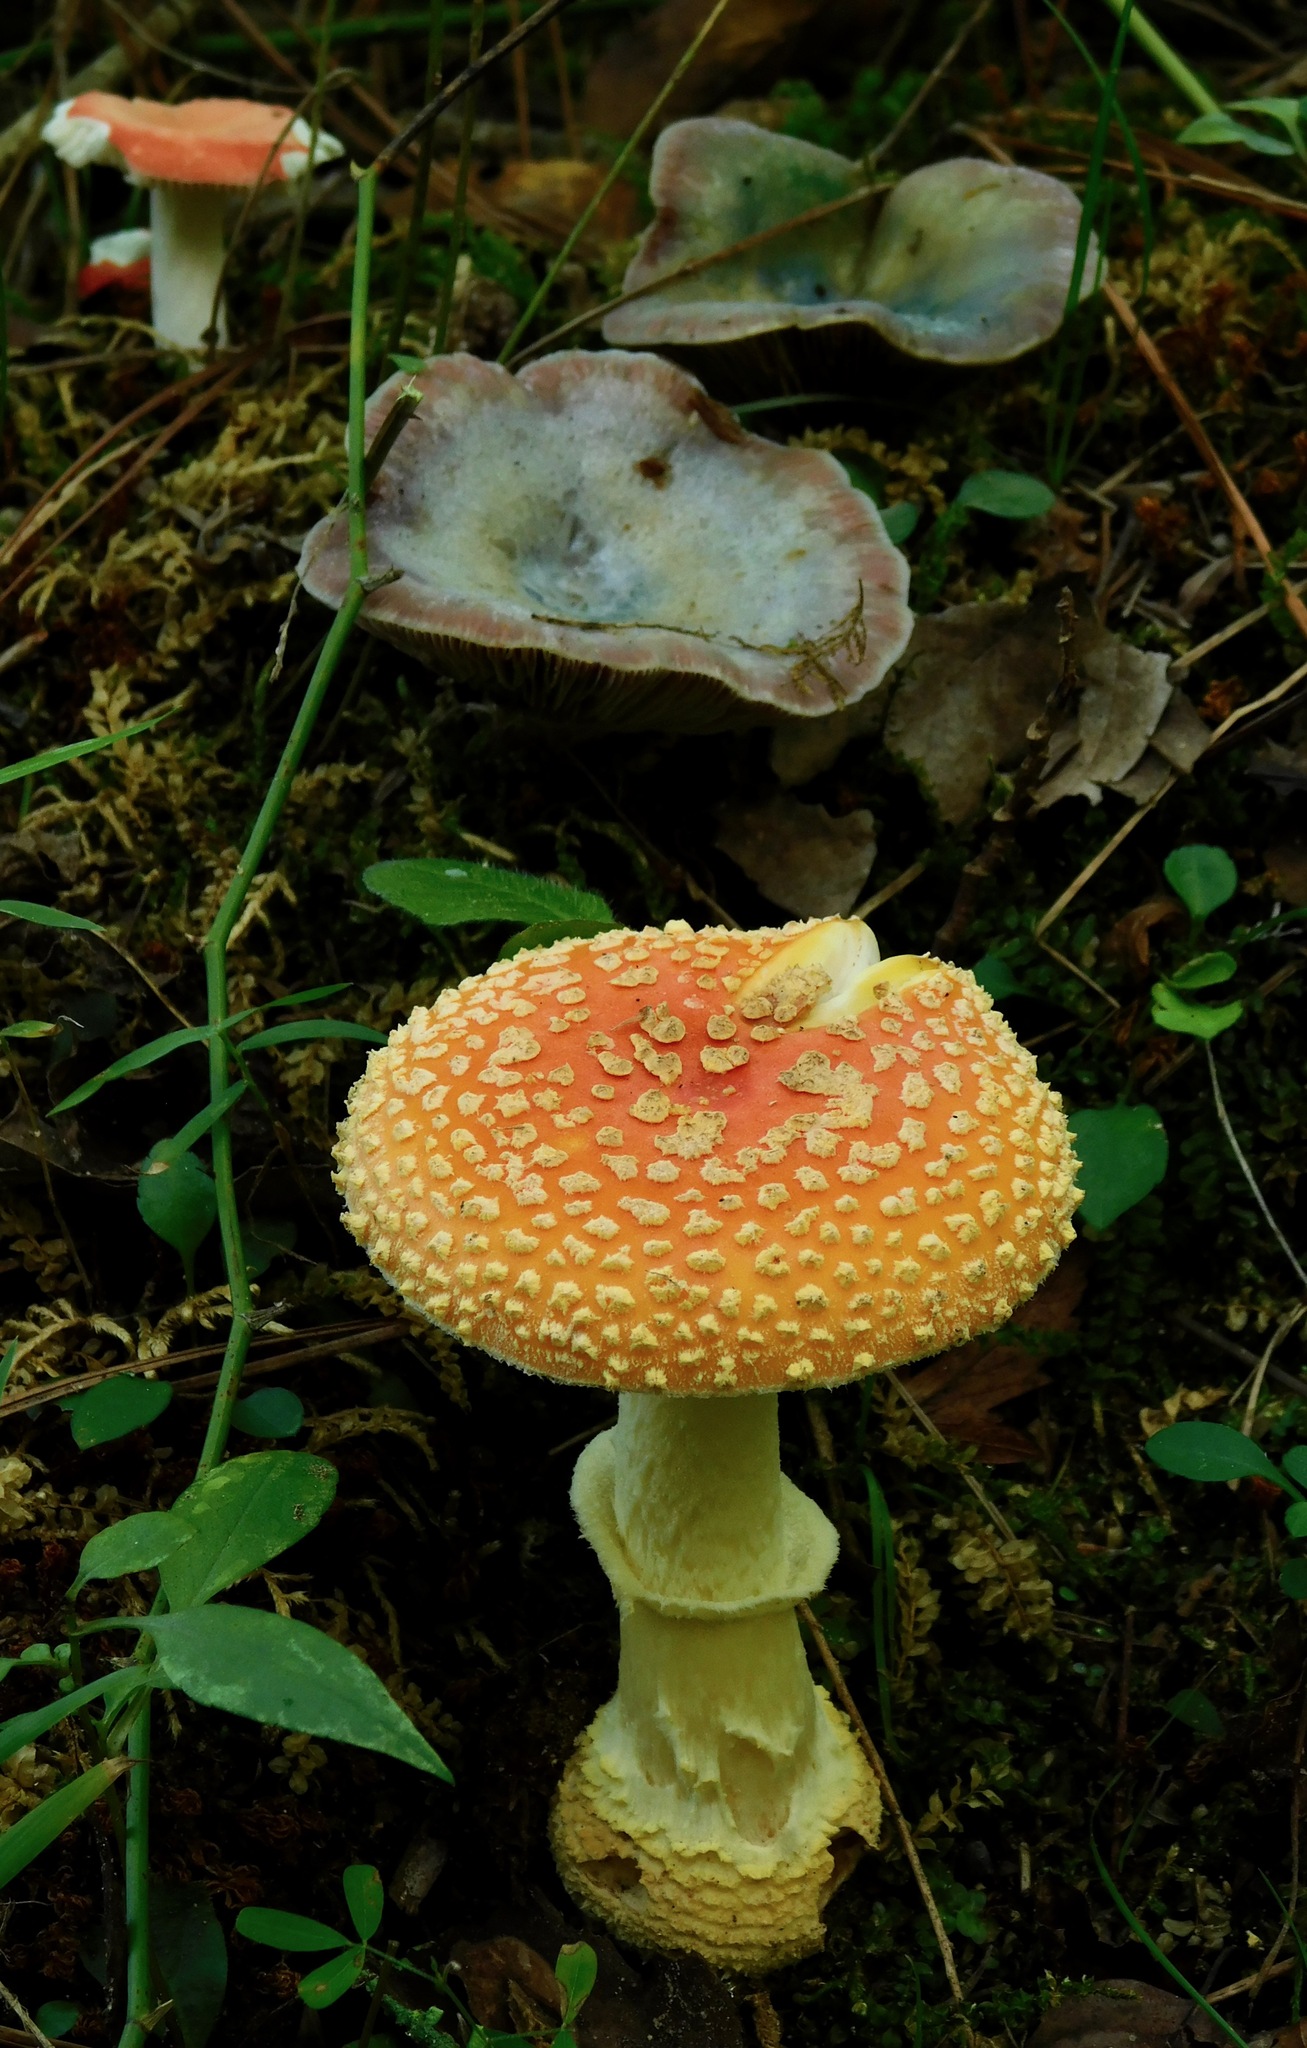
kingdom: Fungi
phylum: Basidiomycota
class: Agaricomycetes
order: Agaricales
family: Amanitaceae
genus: Amanita
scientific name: Amanita persicina
